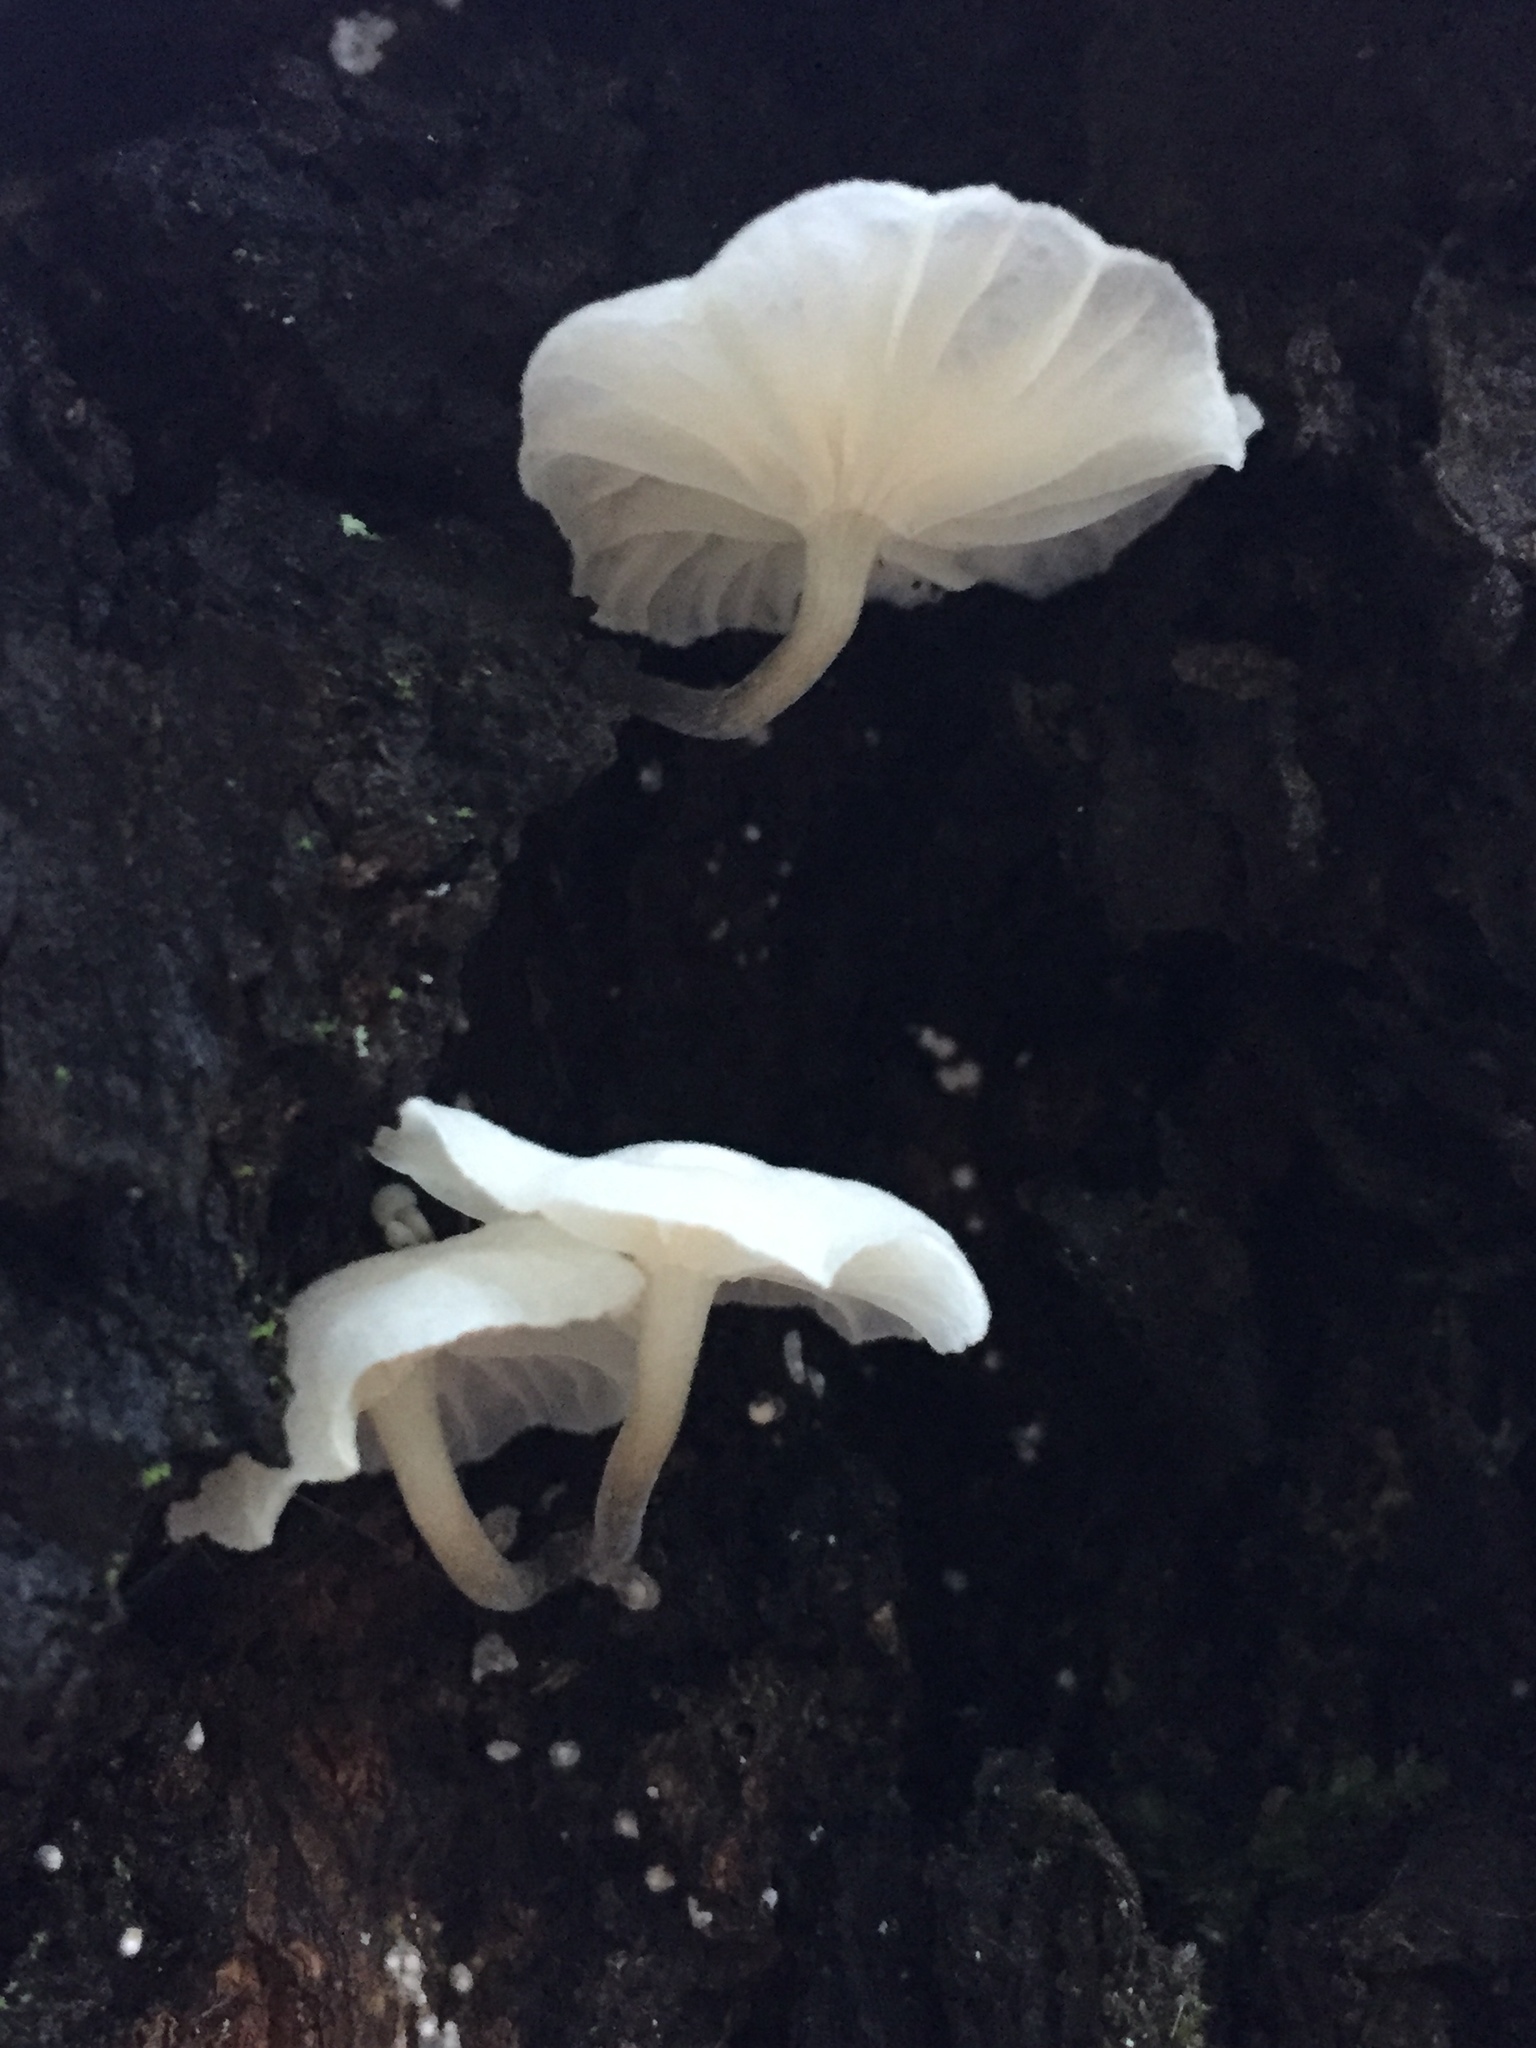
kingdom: Fungi
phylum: Basidiomycota
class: Agaricomycetes
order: Agaricales
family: Omphalotaceae
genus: Marasmiellus
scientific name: Marasmiellus candidus
